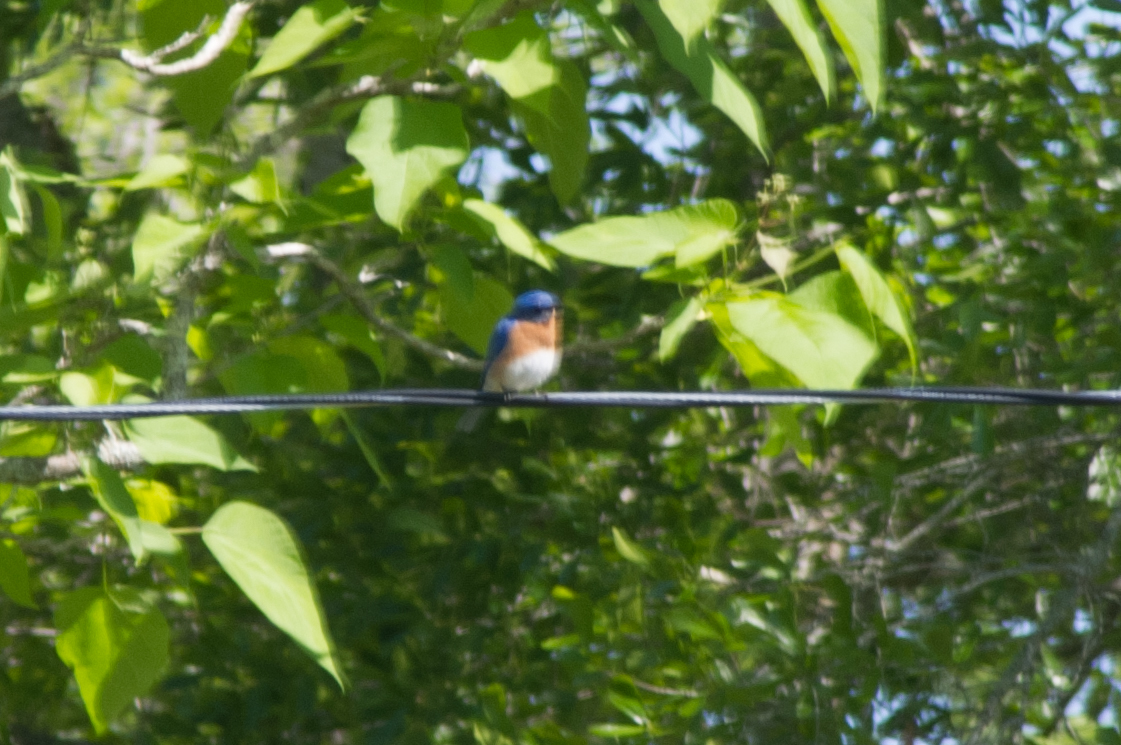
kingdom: Animalia
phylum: Chordata
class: Aves
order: Passeriformes
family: Turdidae
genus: Sialia
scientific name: Sialia sialis
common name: Eastern bluebird
